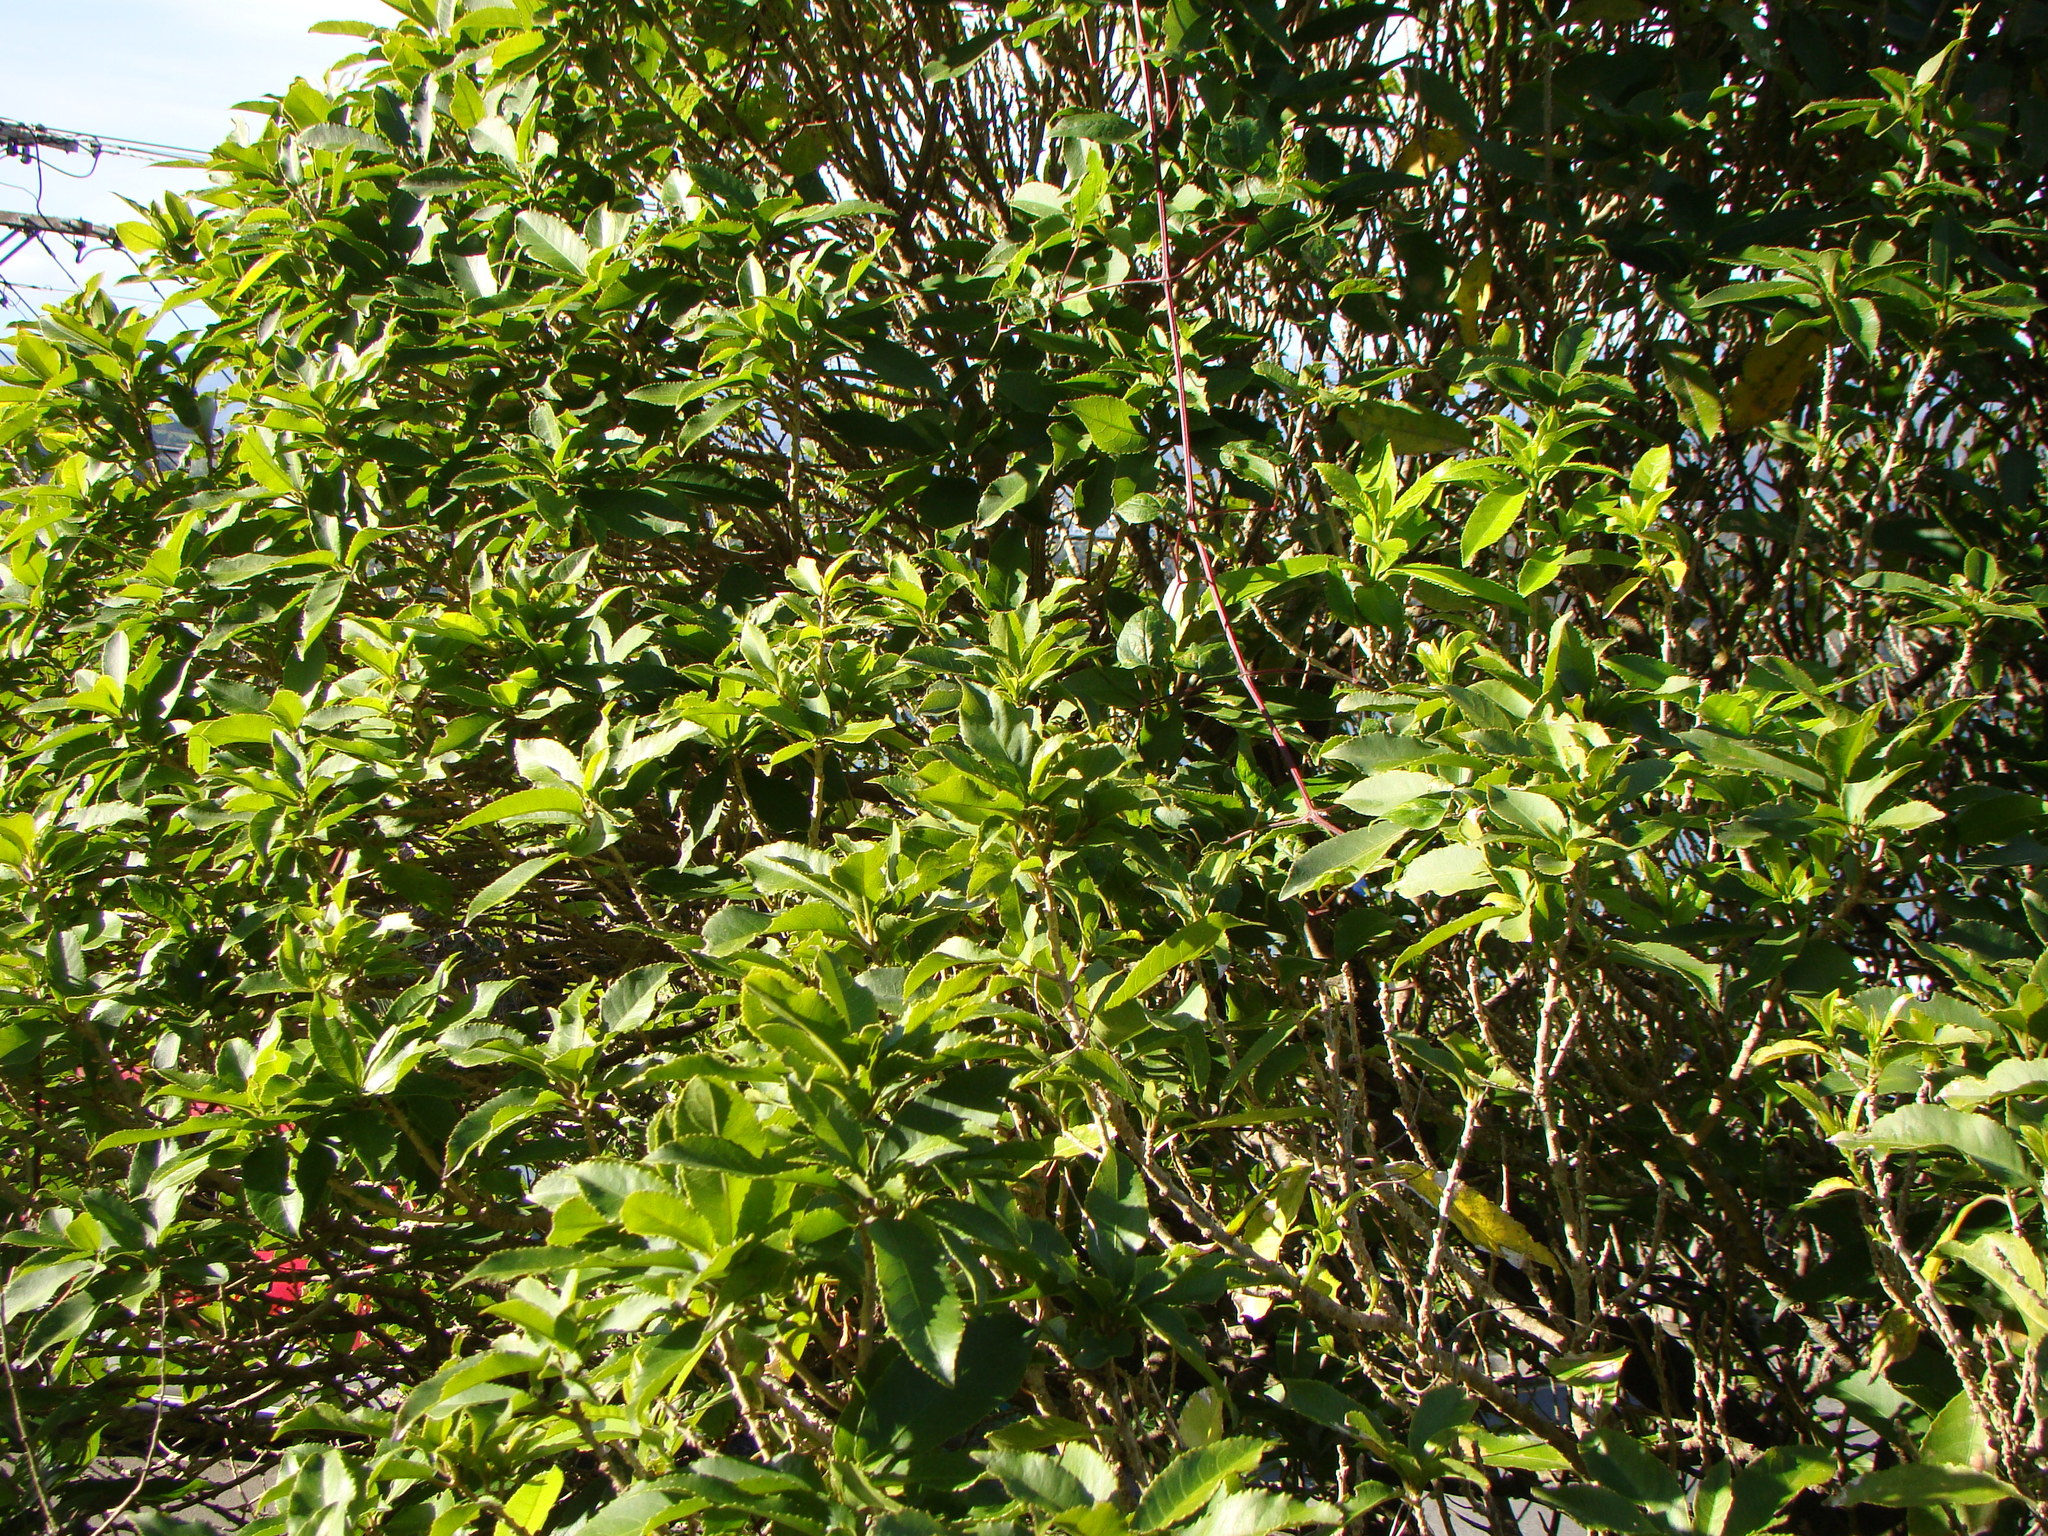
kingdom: Plantae
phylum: Tracheophyta
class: Magnoliopsida
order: Malpighiales
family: Violaceae
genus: Melicytus
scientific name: Melicytus ramiflorus
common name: Mahoe
